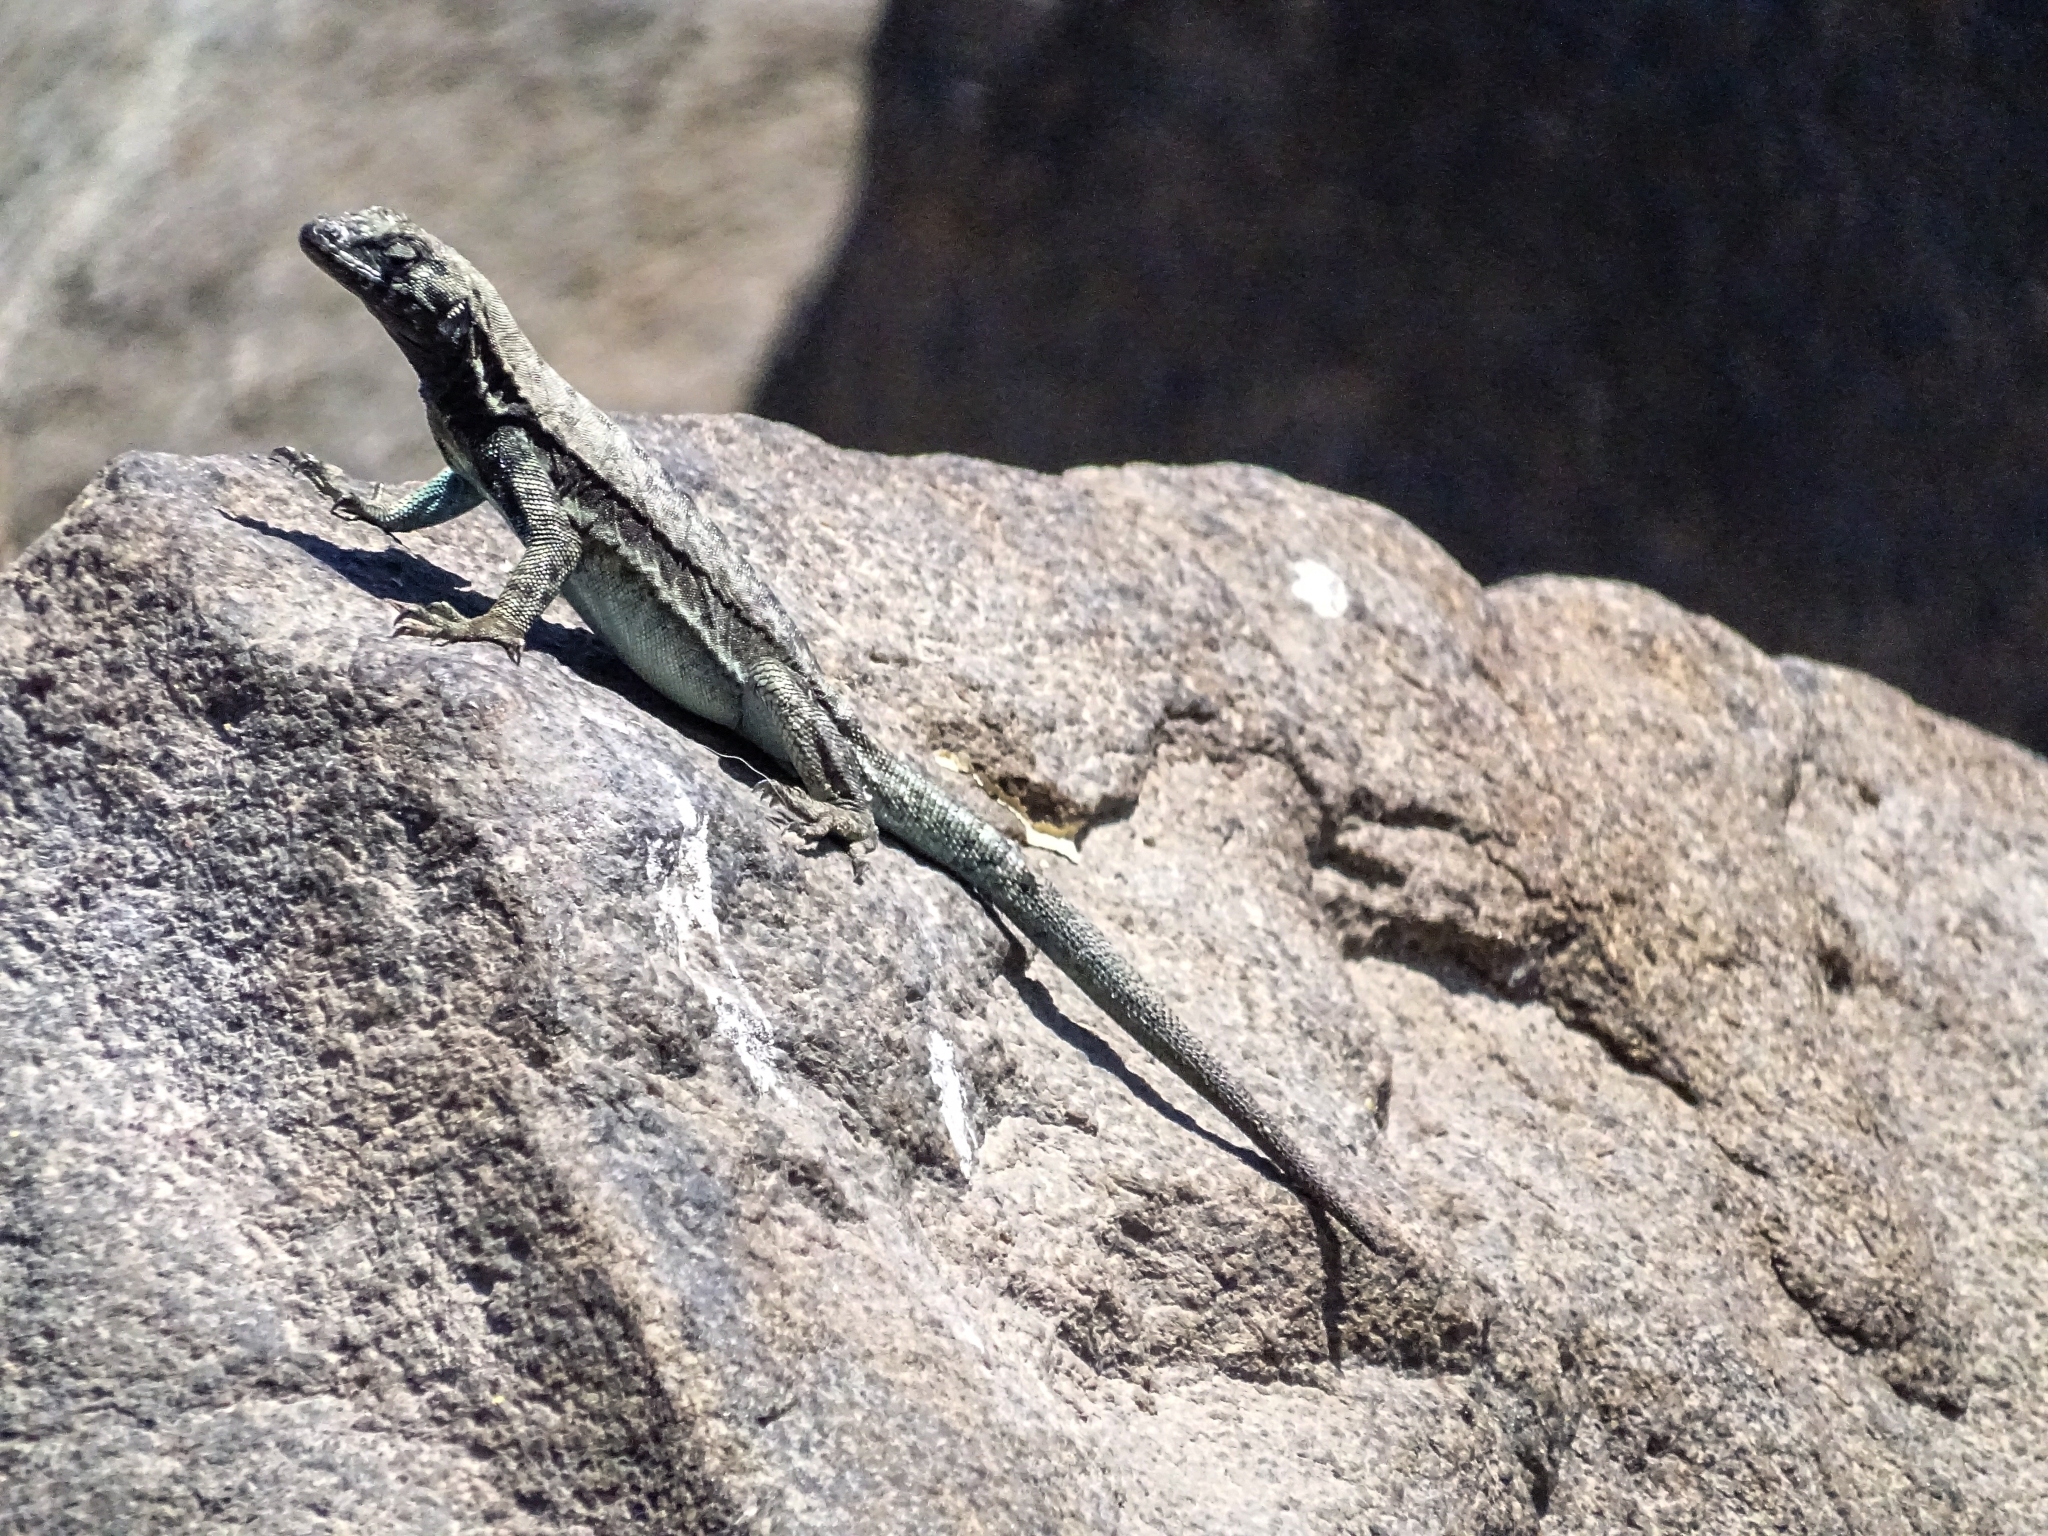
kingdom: Animalia
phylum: Chordata
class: Squamata
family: Tropiduridae
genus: Microlophus
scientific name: Microlophus atacamensis
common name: Atacamen pacific iguana
